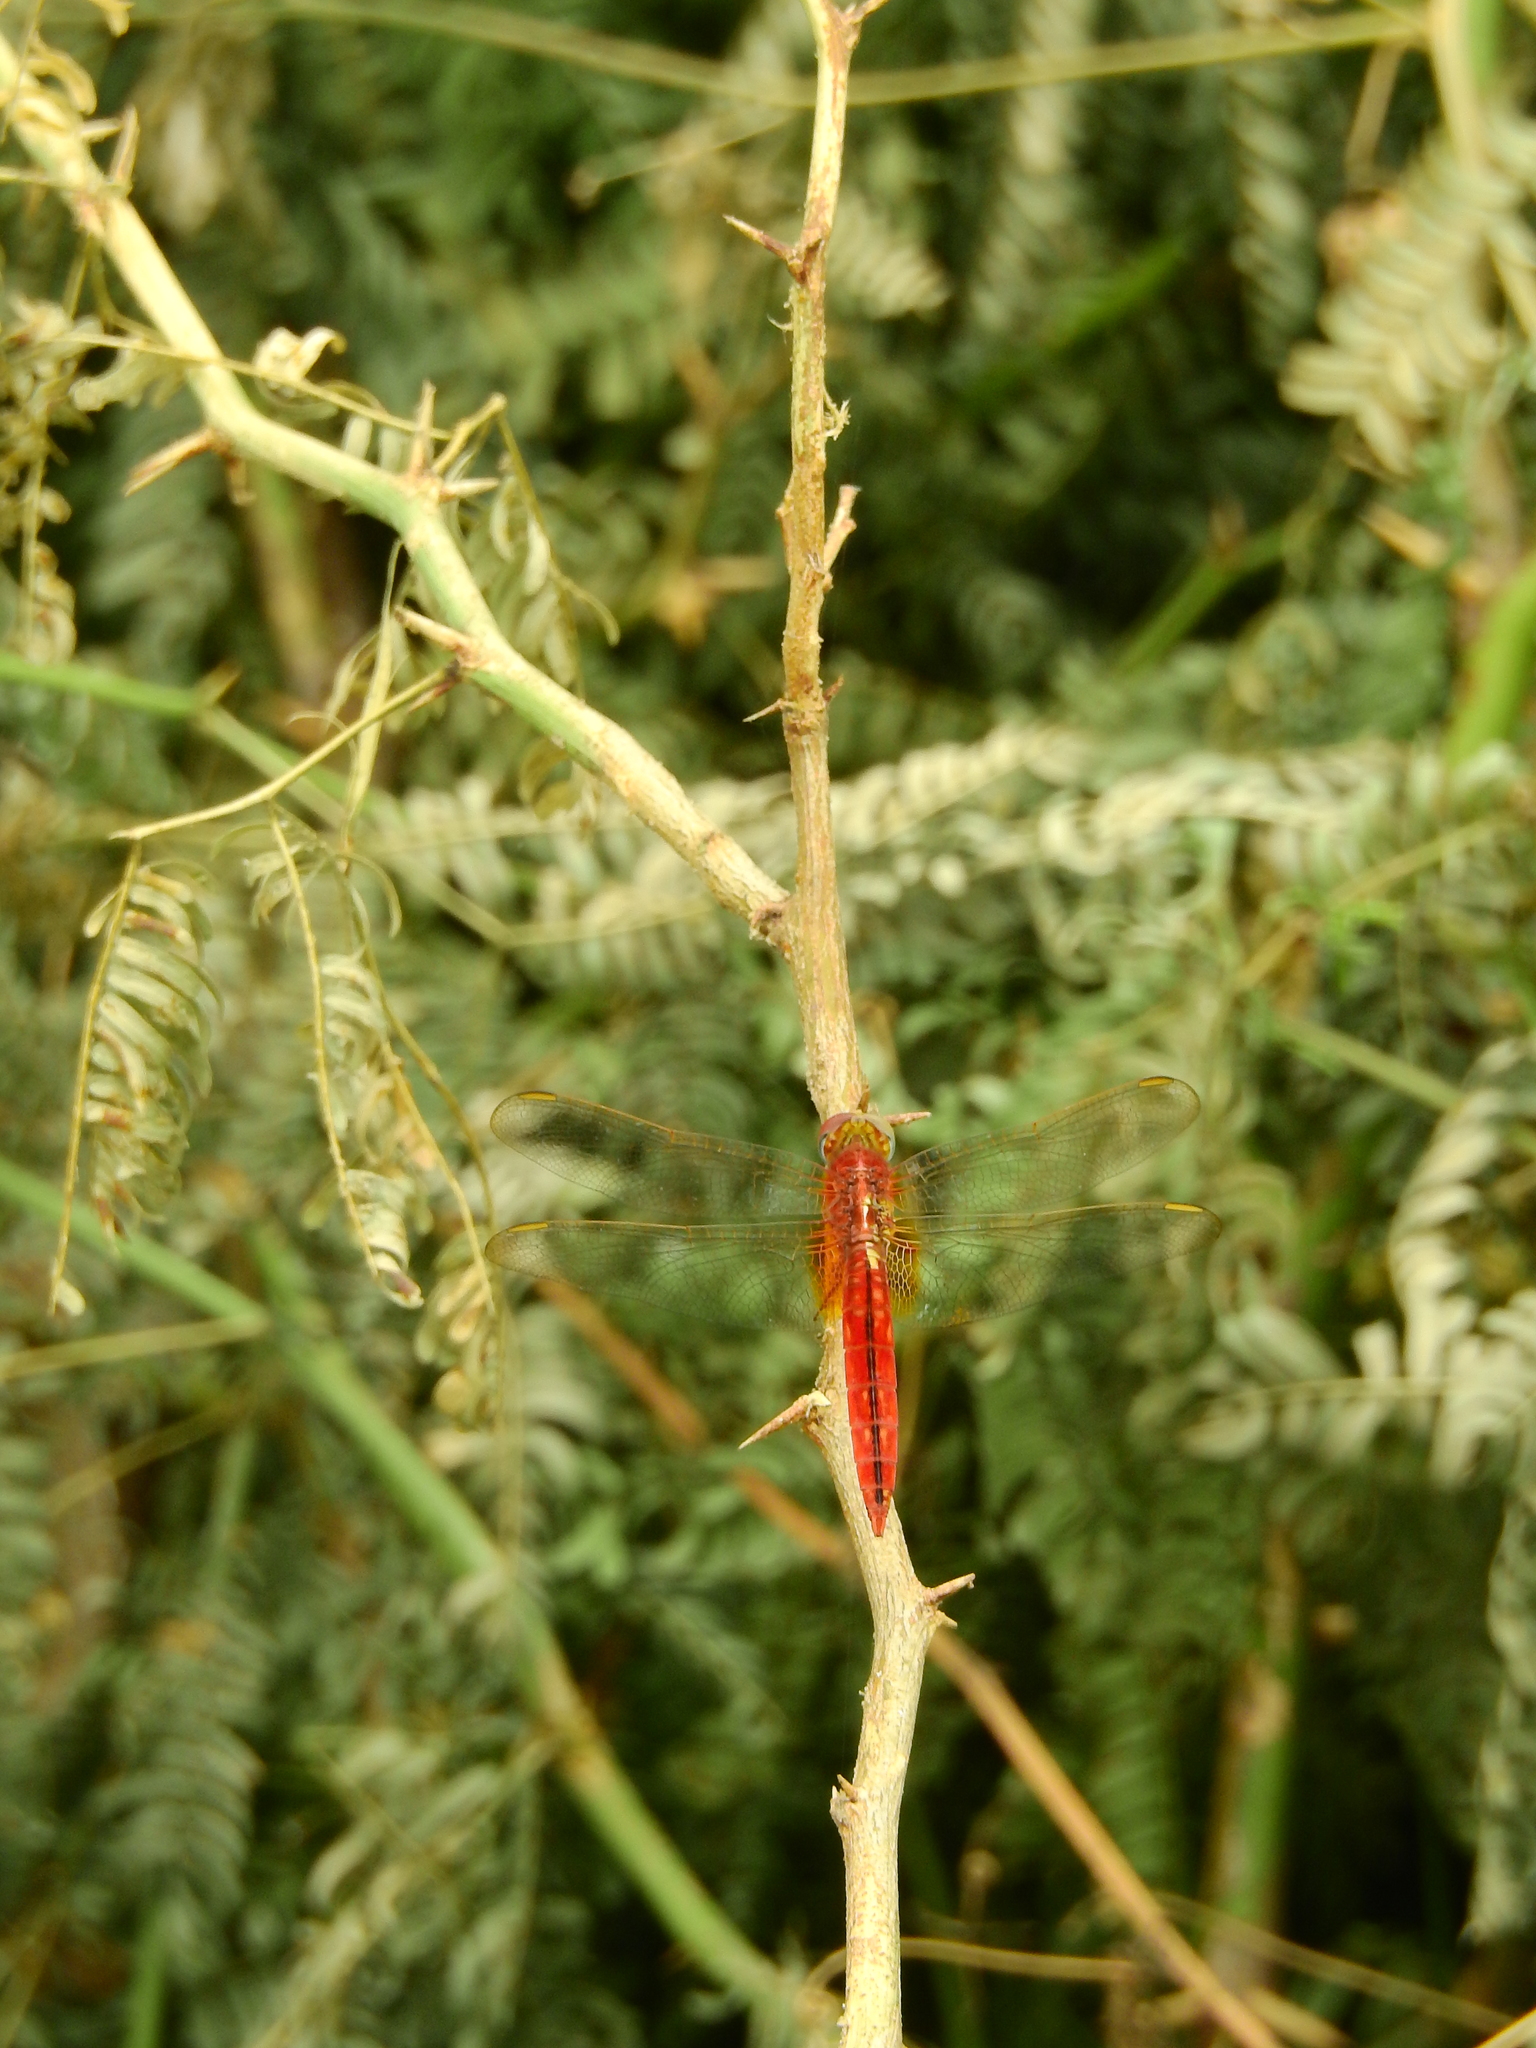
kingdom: Animalia
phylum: Arthropoda
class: Insecta
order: Odonata
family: Libellulidae
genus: Crocothemis
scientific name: Crocothemis servilia
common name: Scarlet skimmer
